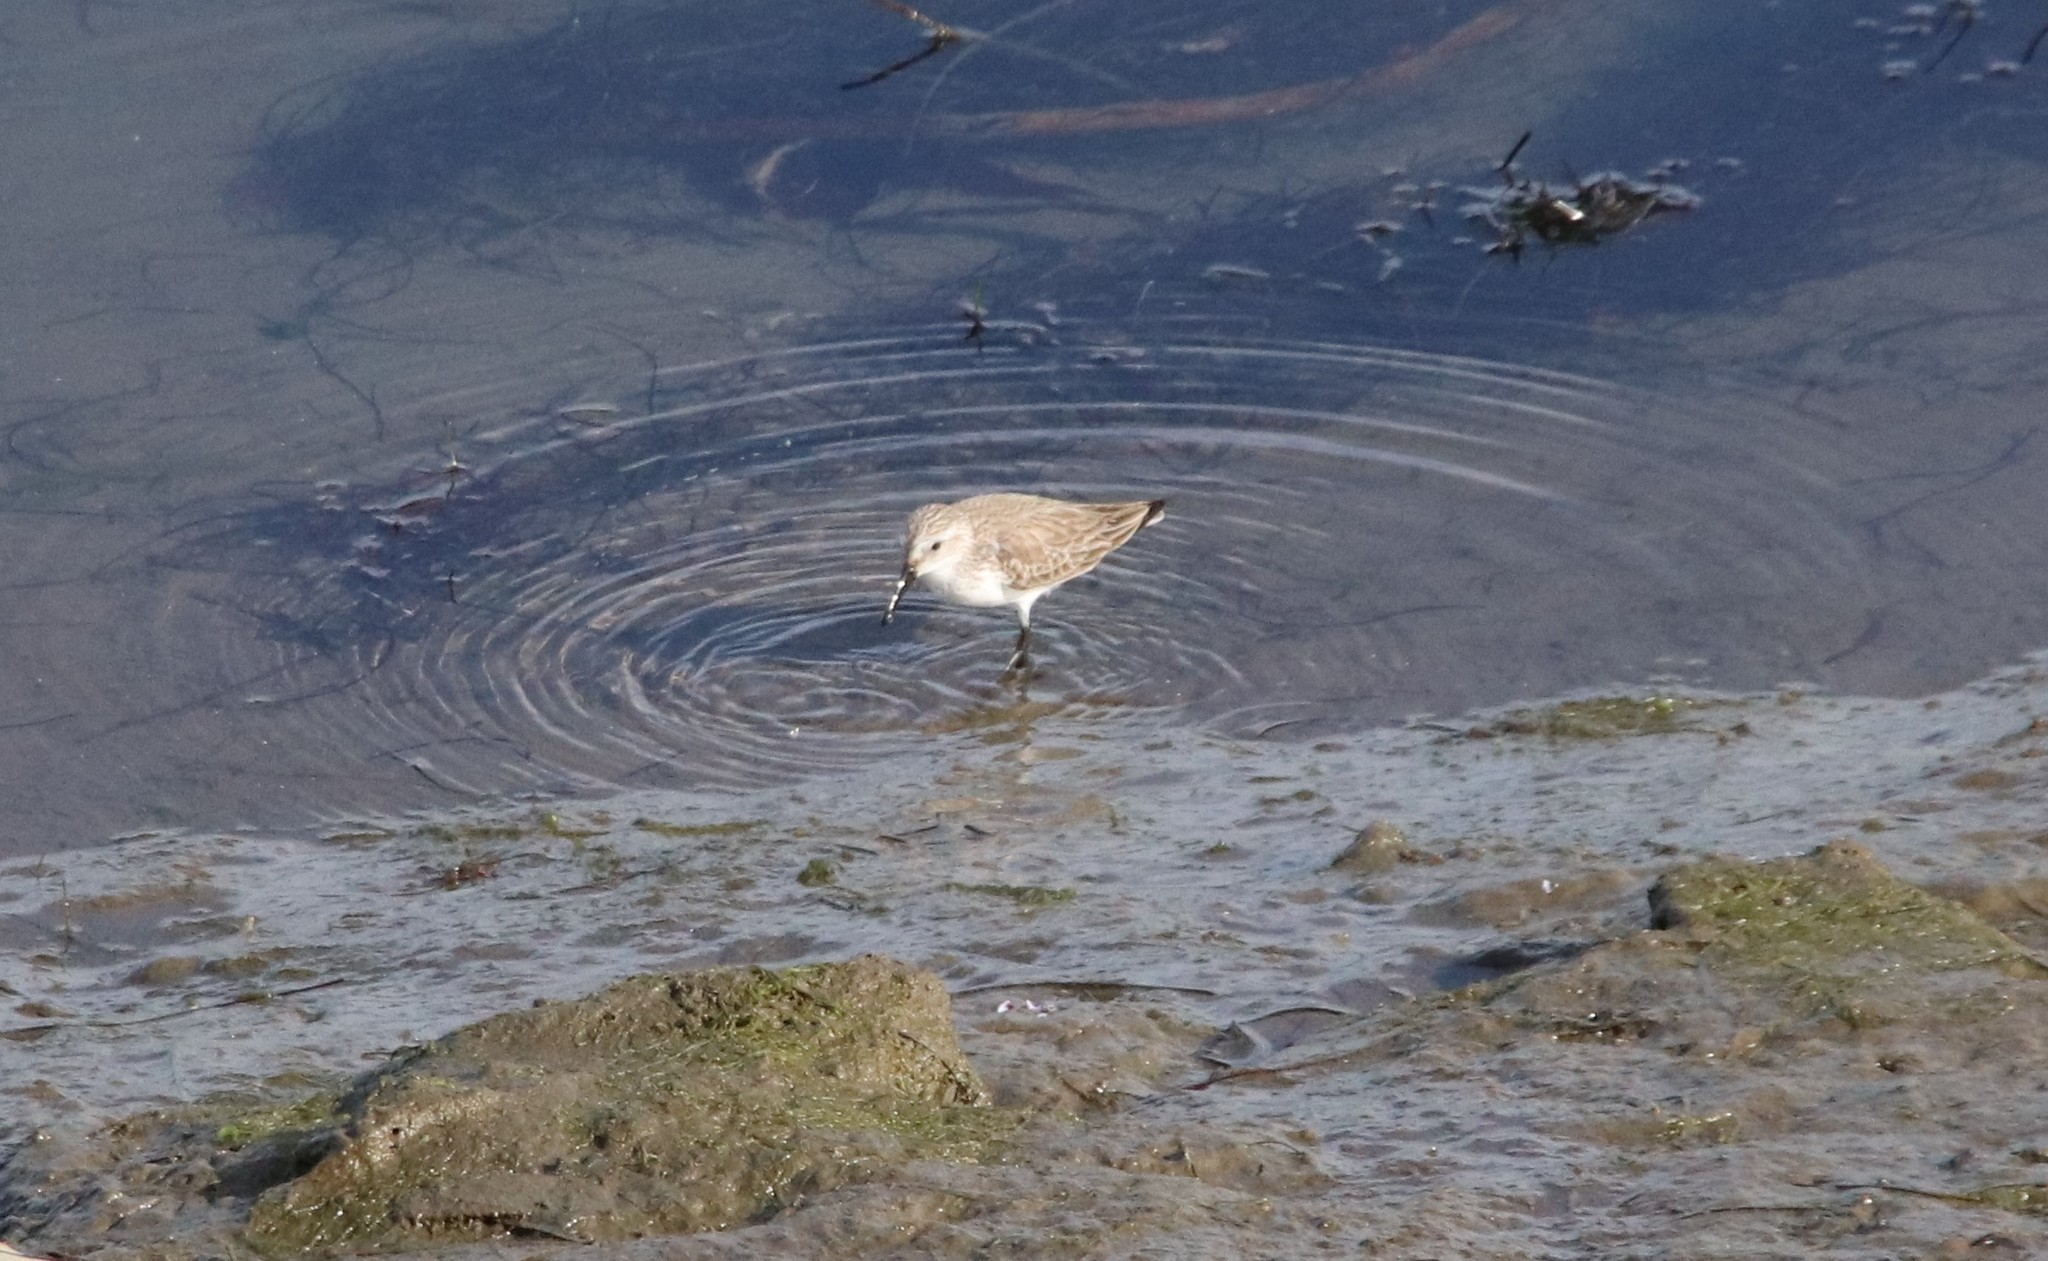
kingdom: Animalia
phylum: Chordata
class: Aves
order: Charadriiformes
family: Scolopacidae
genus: Calidris
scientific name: Calidris mauri
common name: Western sandpiper
